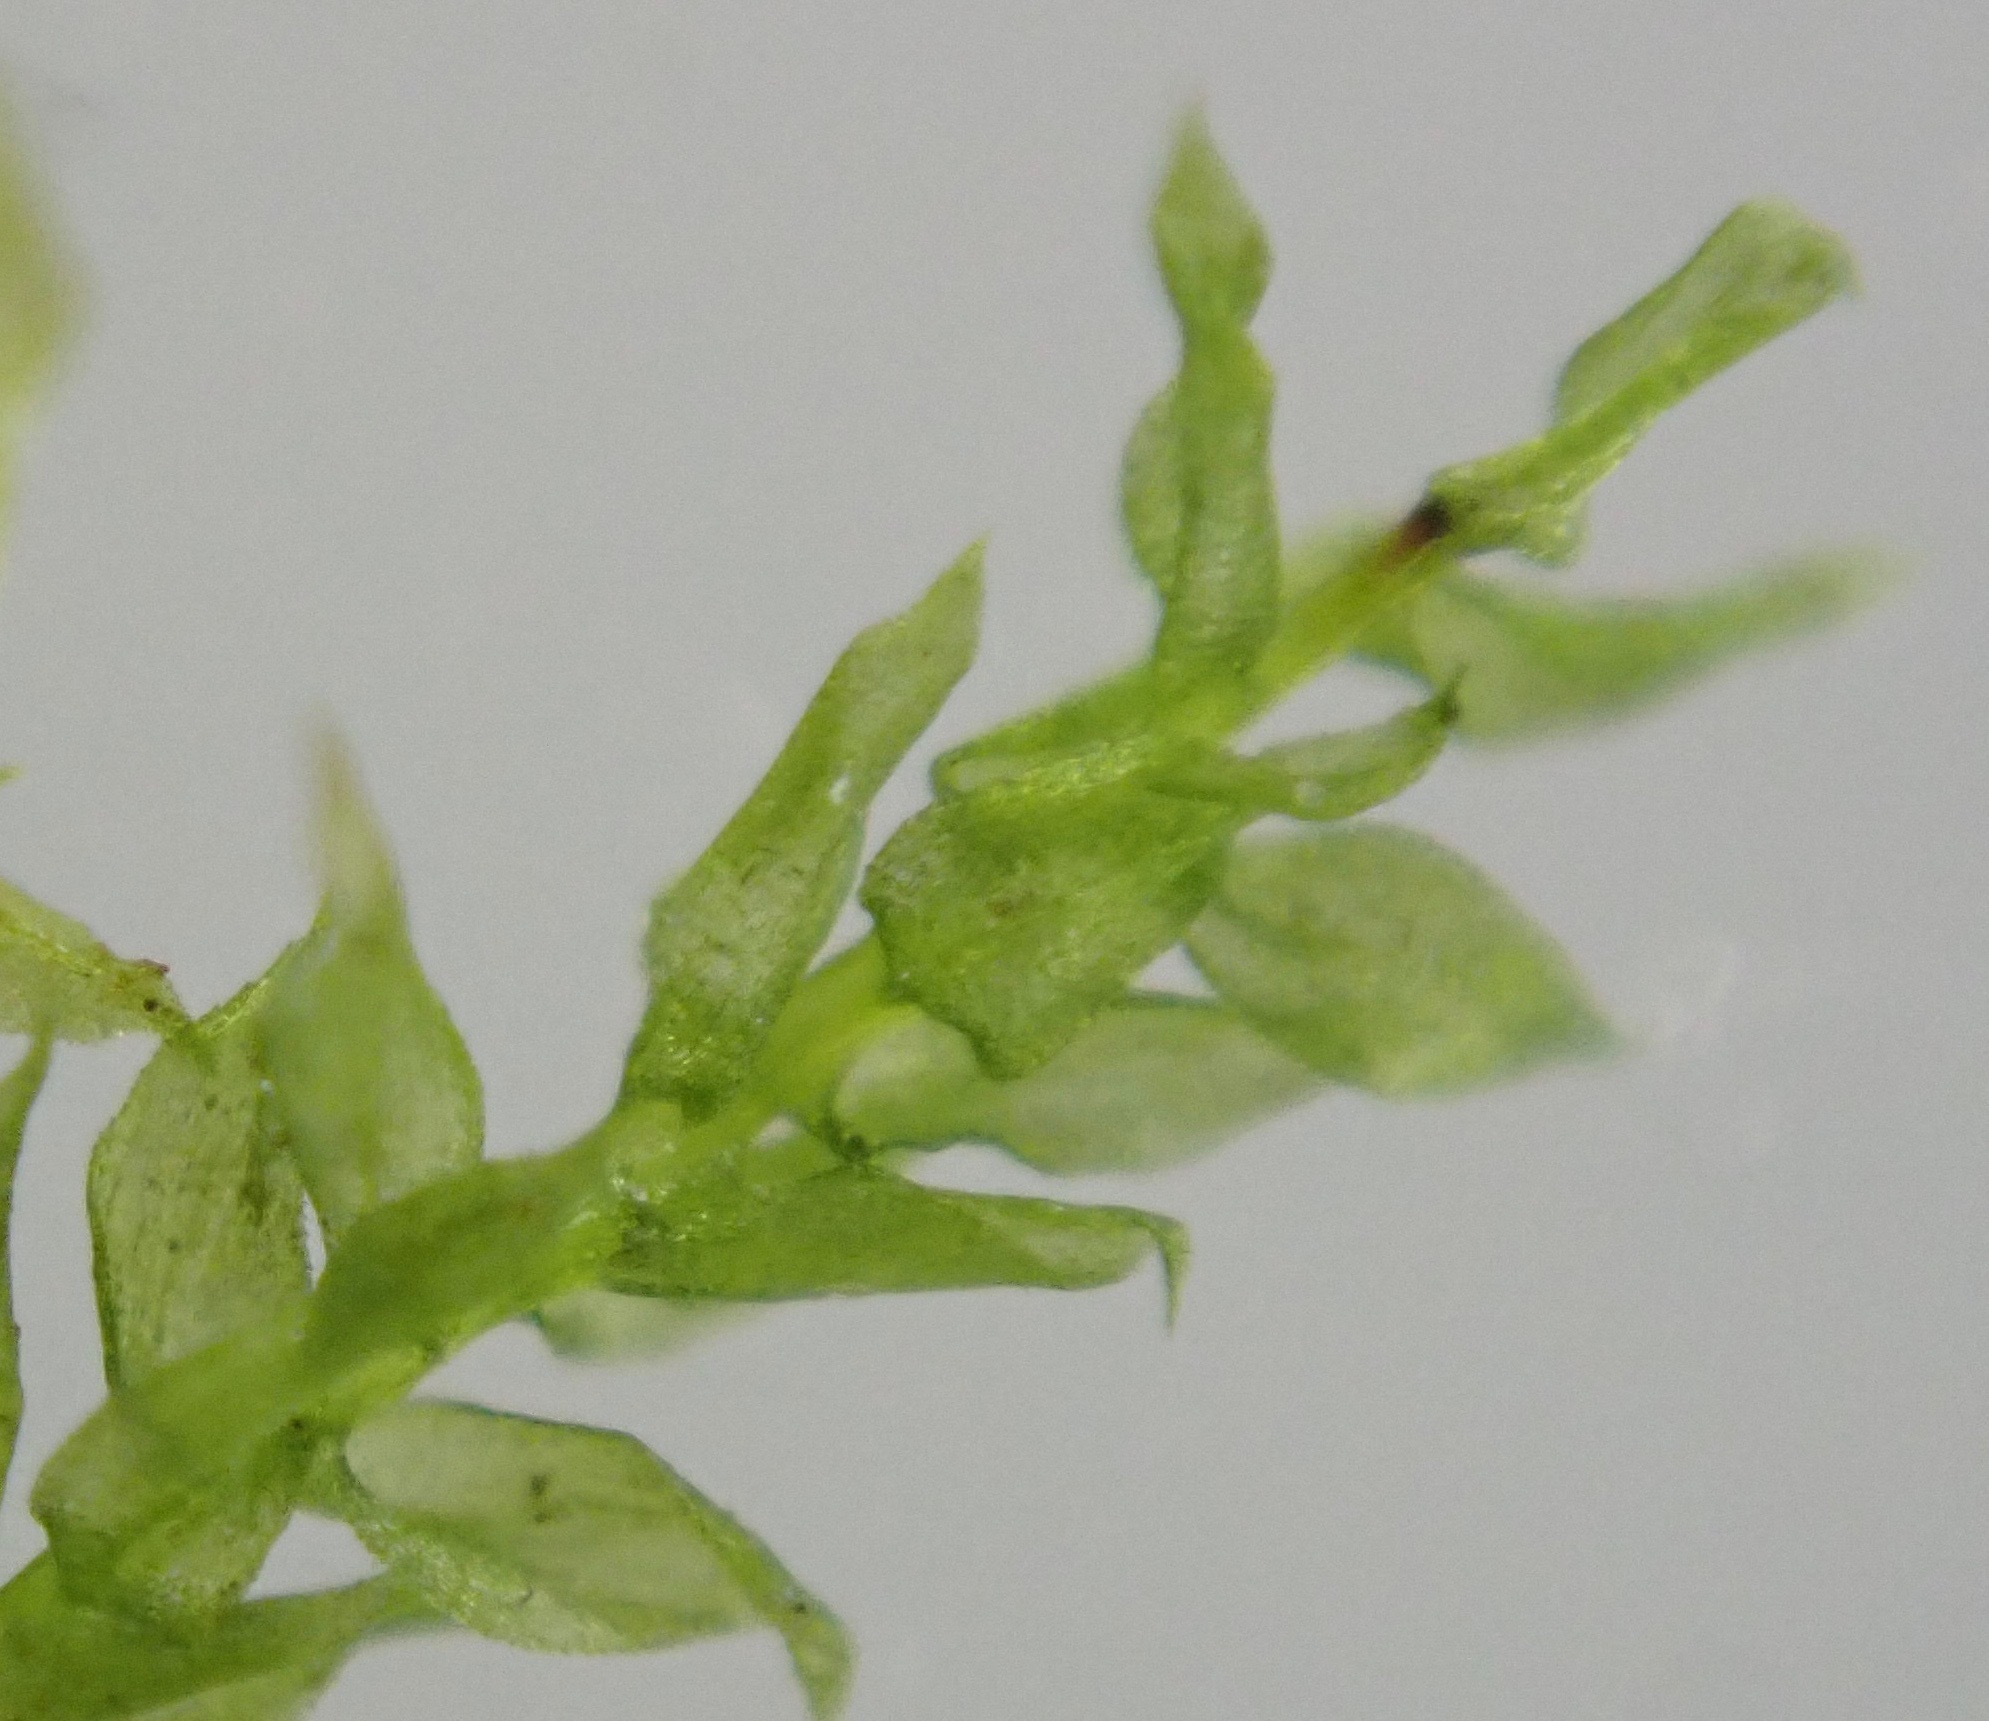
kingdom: Plantae
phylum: Bryophyta
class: Bryopsida
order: Hypnales
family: Brachytheciaceae
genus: Oxyrrhynchium
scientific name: Oxyrrhynchium hians
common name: Spreading beaked moss
